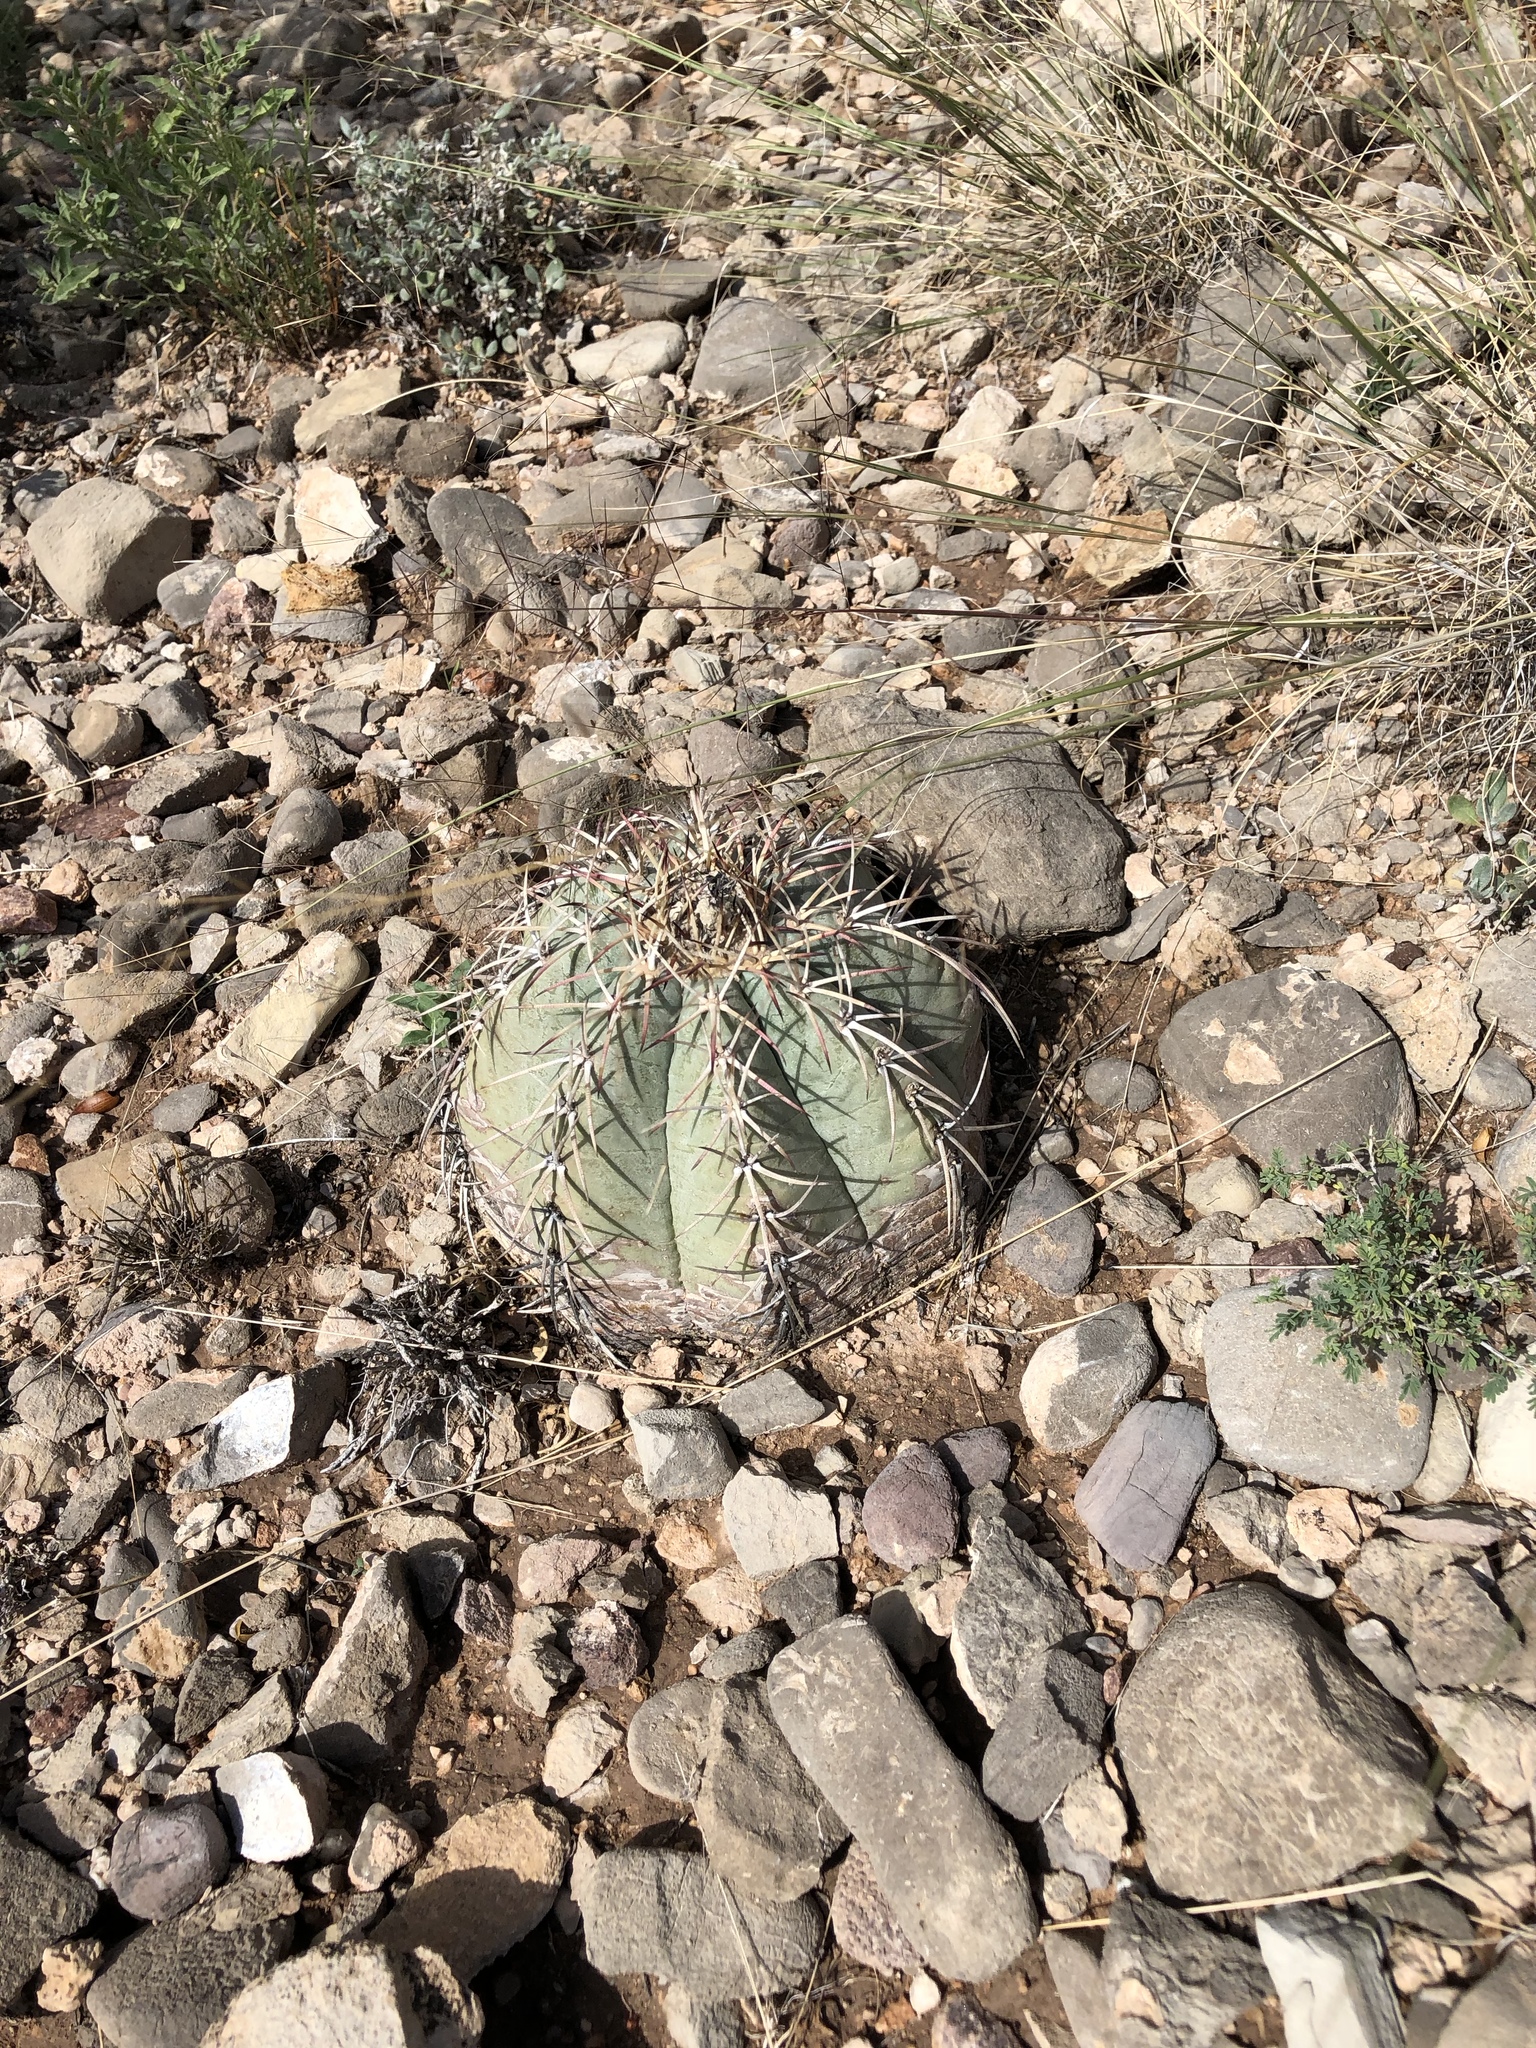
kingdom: Plantae
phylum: Tracheophyta
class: Magnoliopsida
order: Caryophyllales
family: Cactaceae
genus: Echinocactus
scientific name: Echinocactus horizonthalonius
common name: Devilshead
